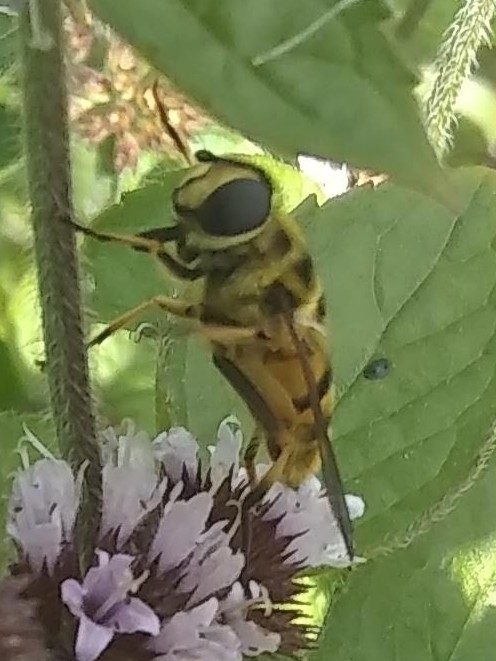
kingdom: Animalia
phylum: Arthropoda
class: Insecta
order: Diptera
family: Syrphidae
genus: Myathropa
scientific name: Myathropa florea
